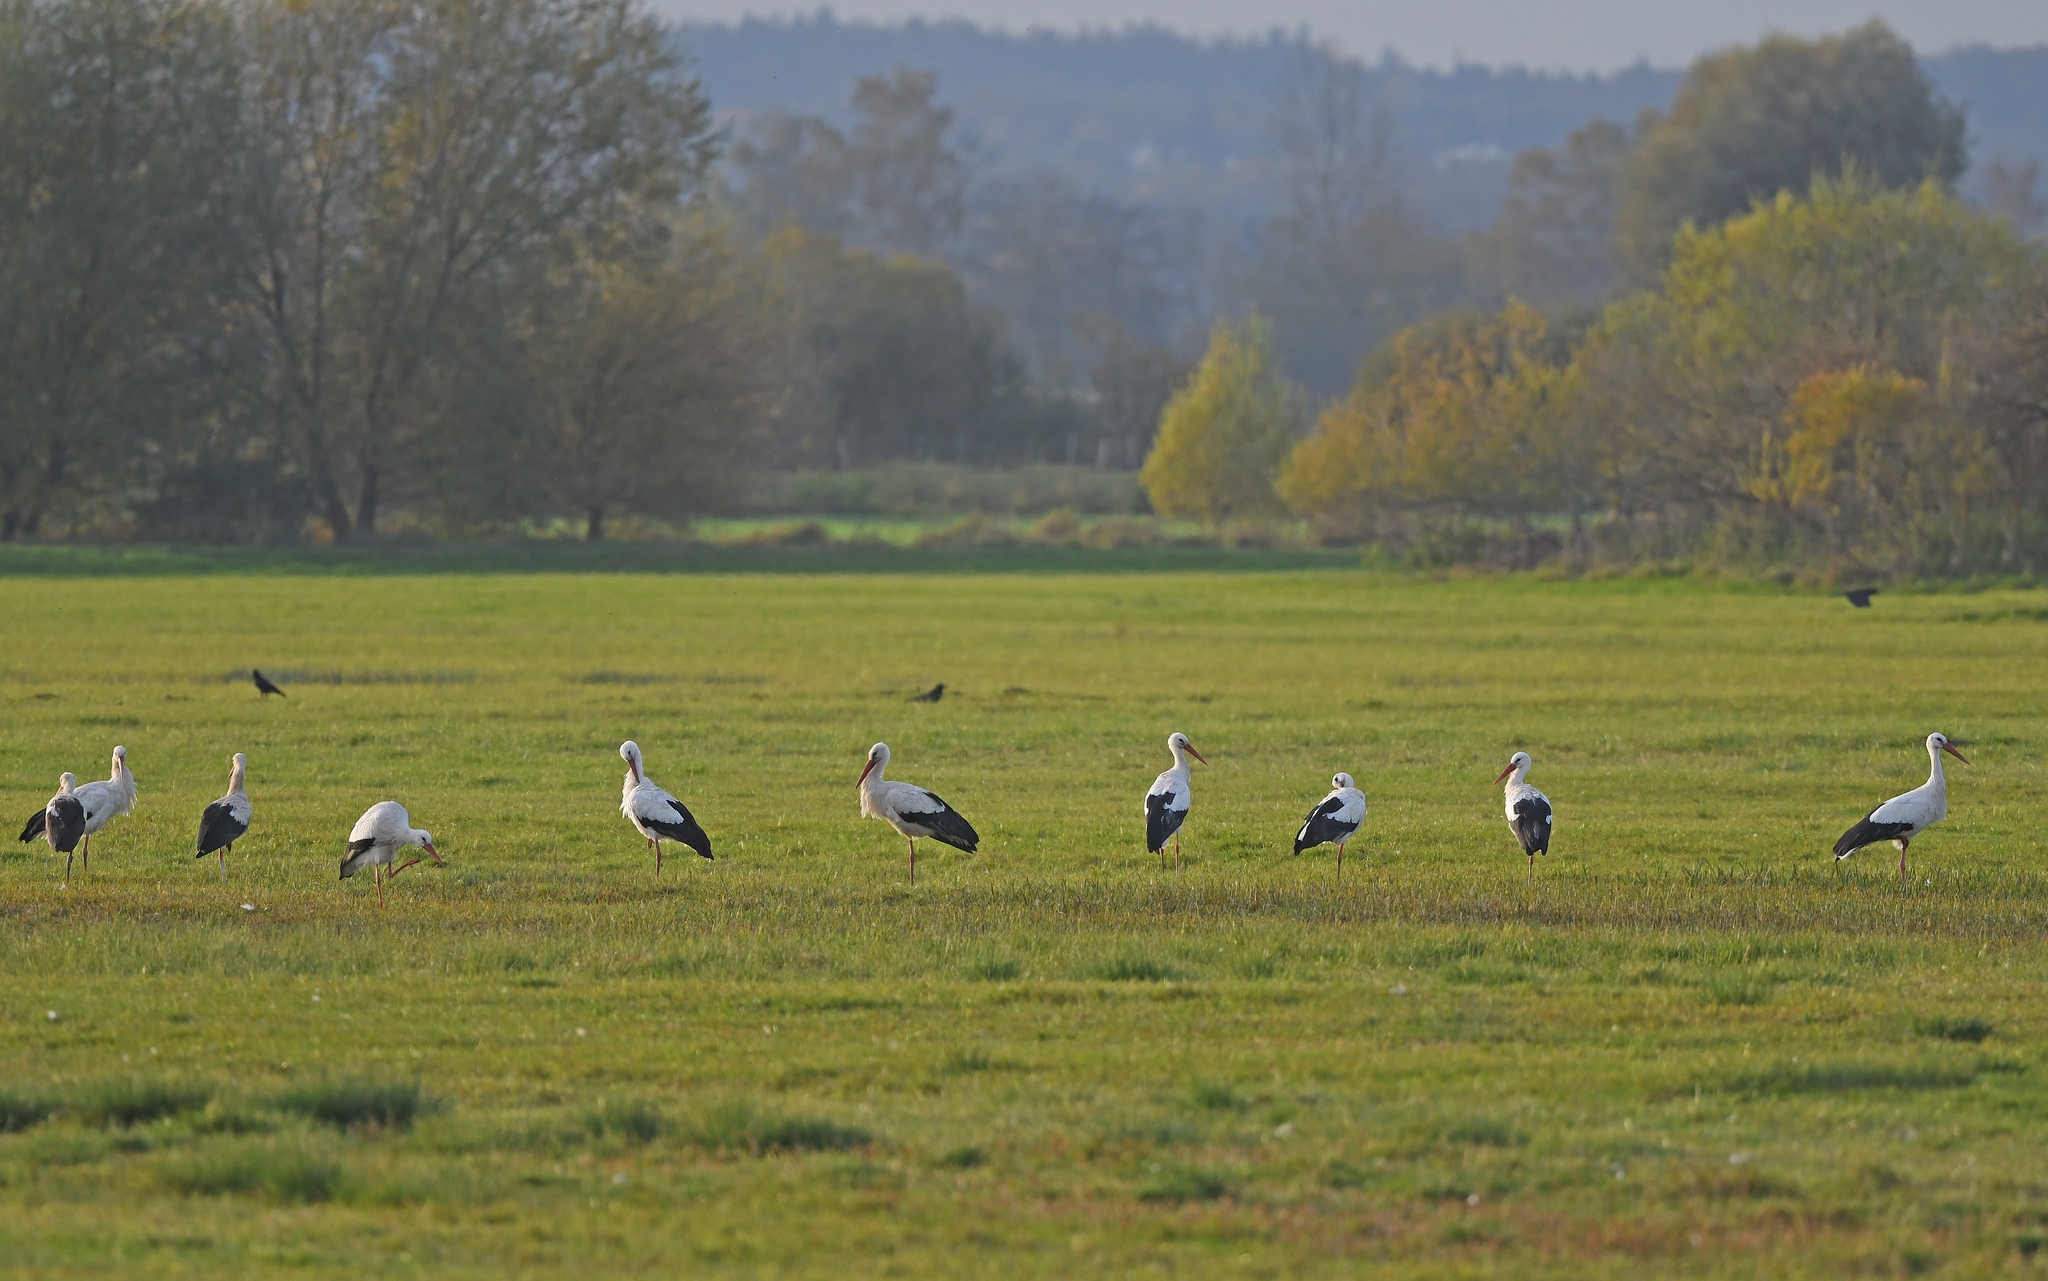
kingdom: Animalia
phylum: Chordata
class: Aves
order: Ciconiiformes
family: Ciconiidae
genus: Ciconia
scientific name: Ciconia ciconia
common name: White stork
